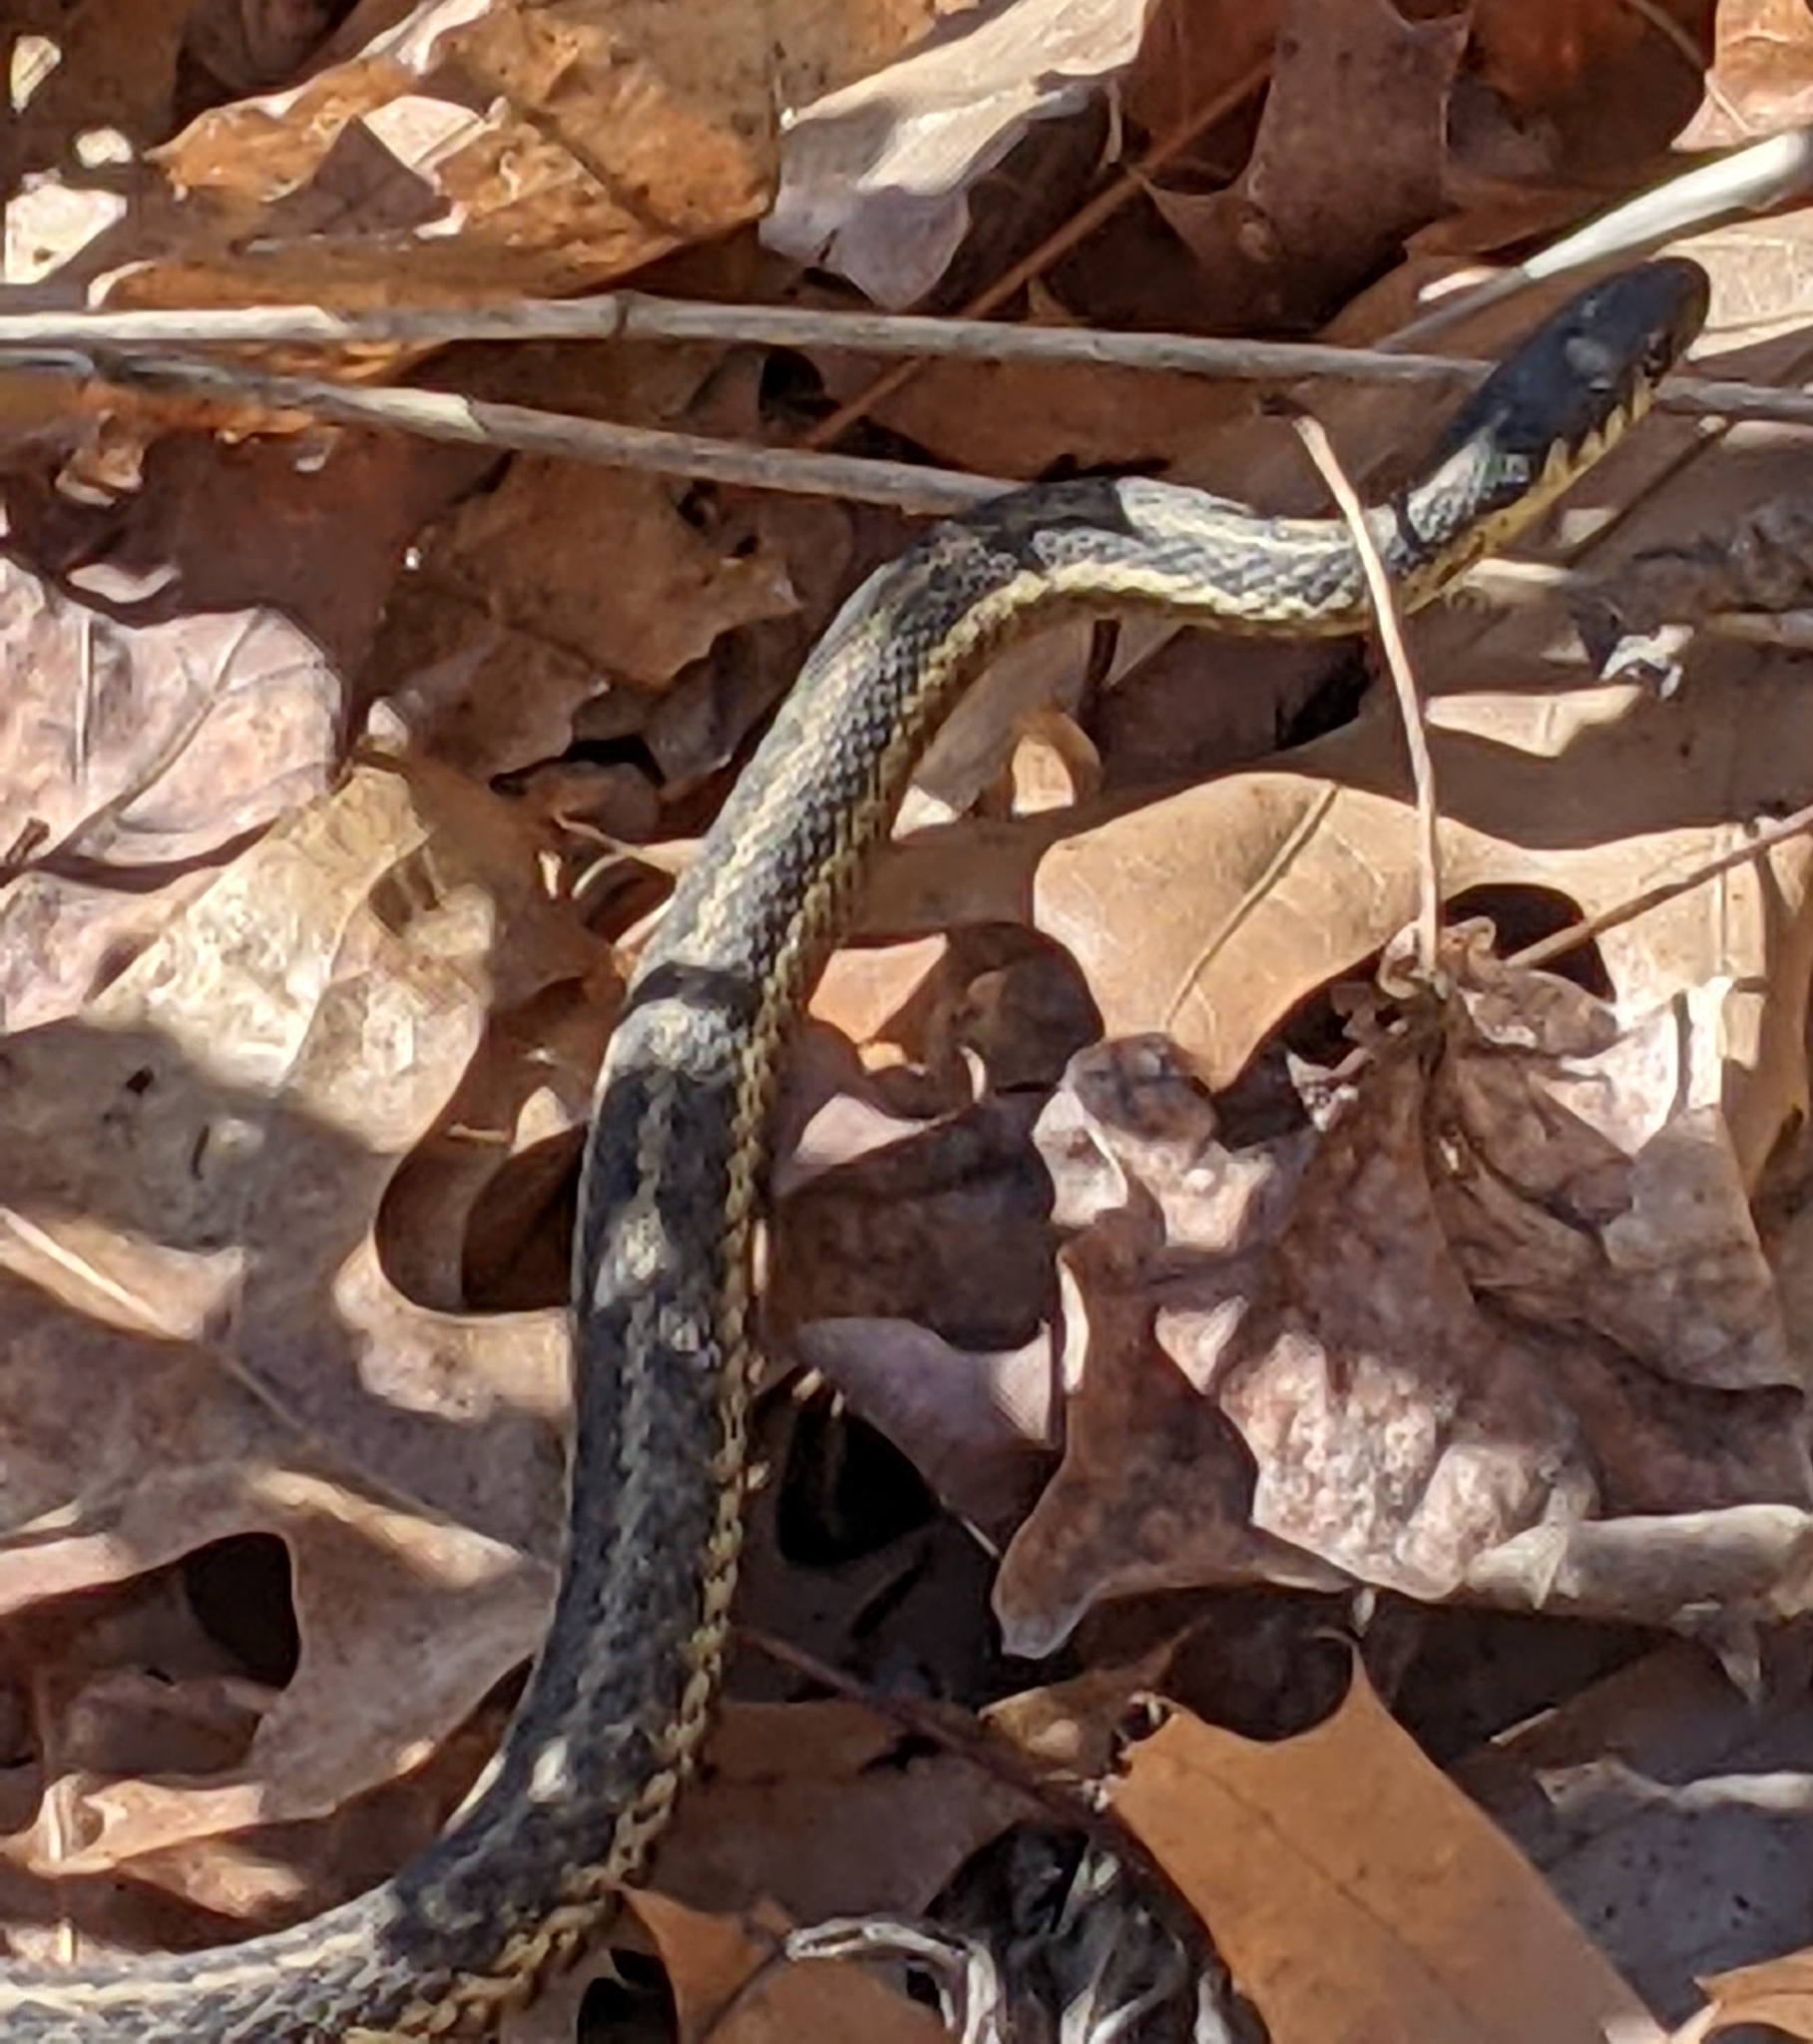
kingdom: Animalia
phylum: Chordata
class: Squamata
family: Colubridae
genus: Thamnophis
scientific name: Thamnophis sirtalis
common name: Common garter snake
